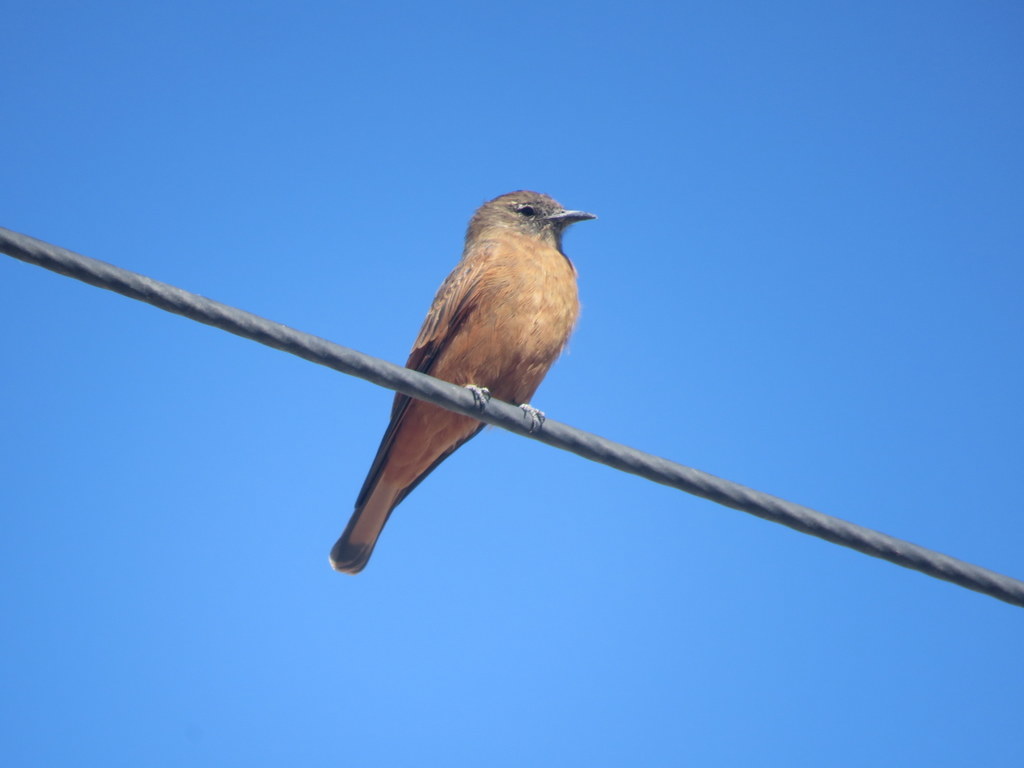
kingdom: Animalia
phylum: Chordata
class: Aves
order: Passeriformes
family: Tyrannidae
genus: Hirundinea
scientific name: Hirundinea ferruginea
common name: Cliff flycatcher
